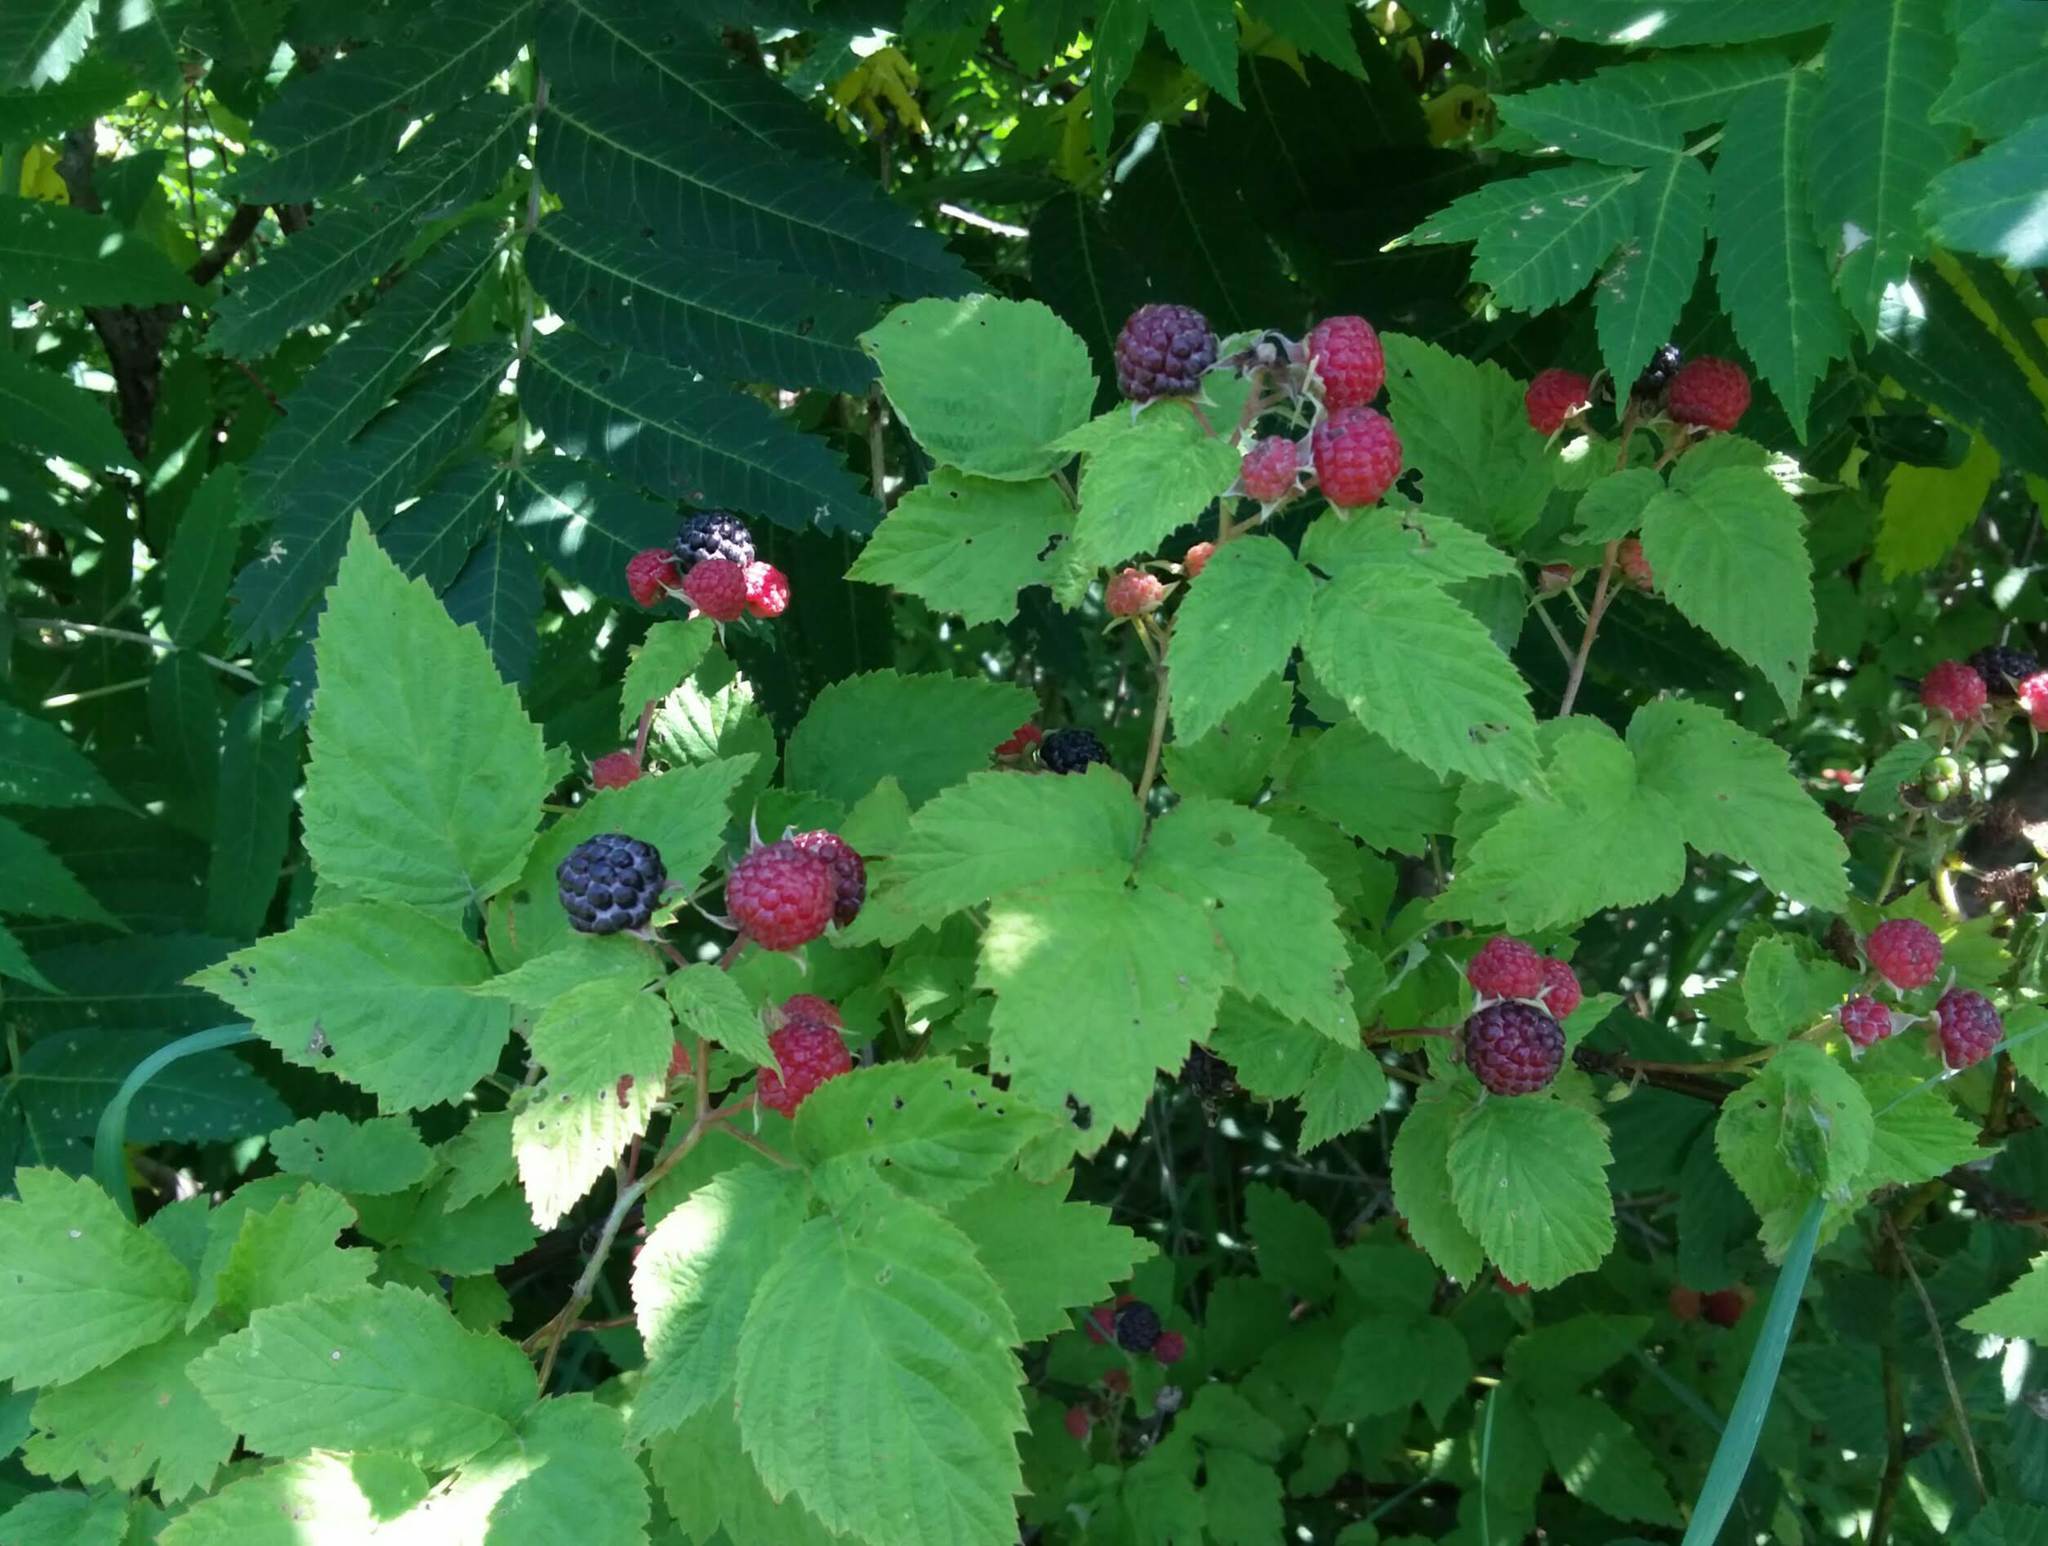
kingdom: Plantae
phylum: Tracheophyta
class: Magnoliopsida
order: Rosales
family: Rosaceae
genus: Rubus
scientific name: Rubus occidentalis
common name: Black raspberry
